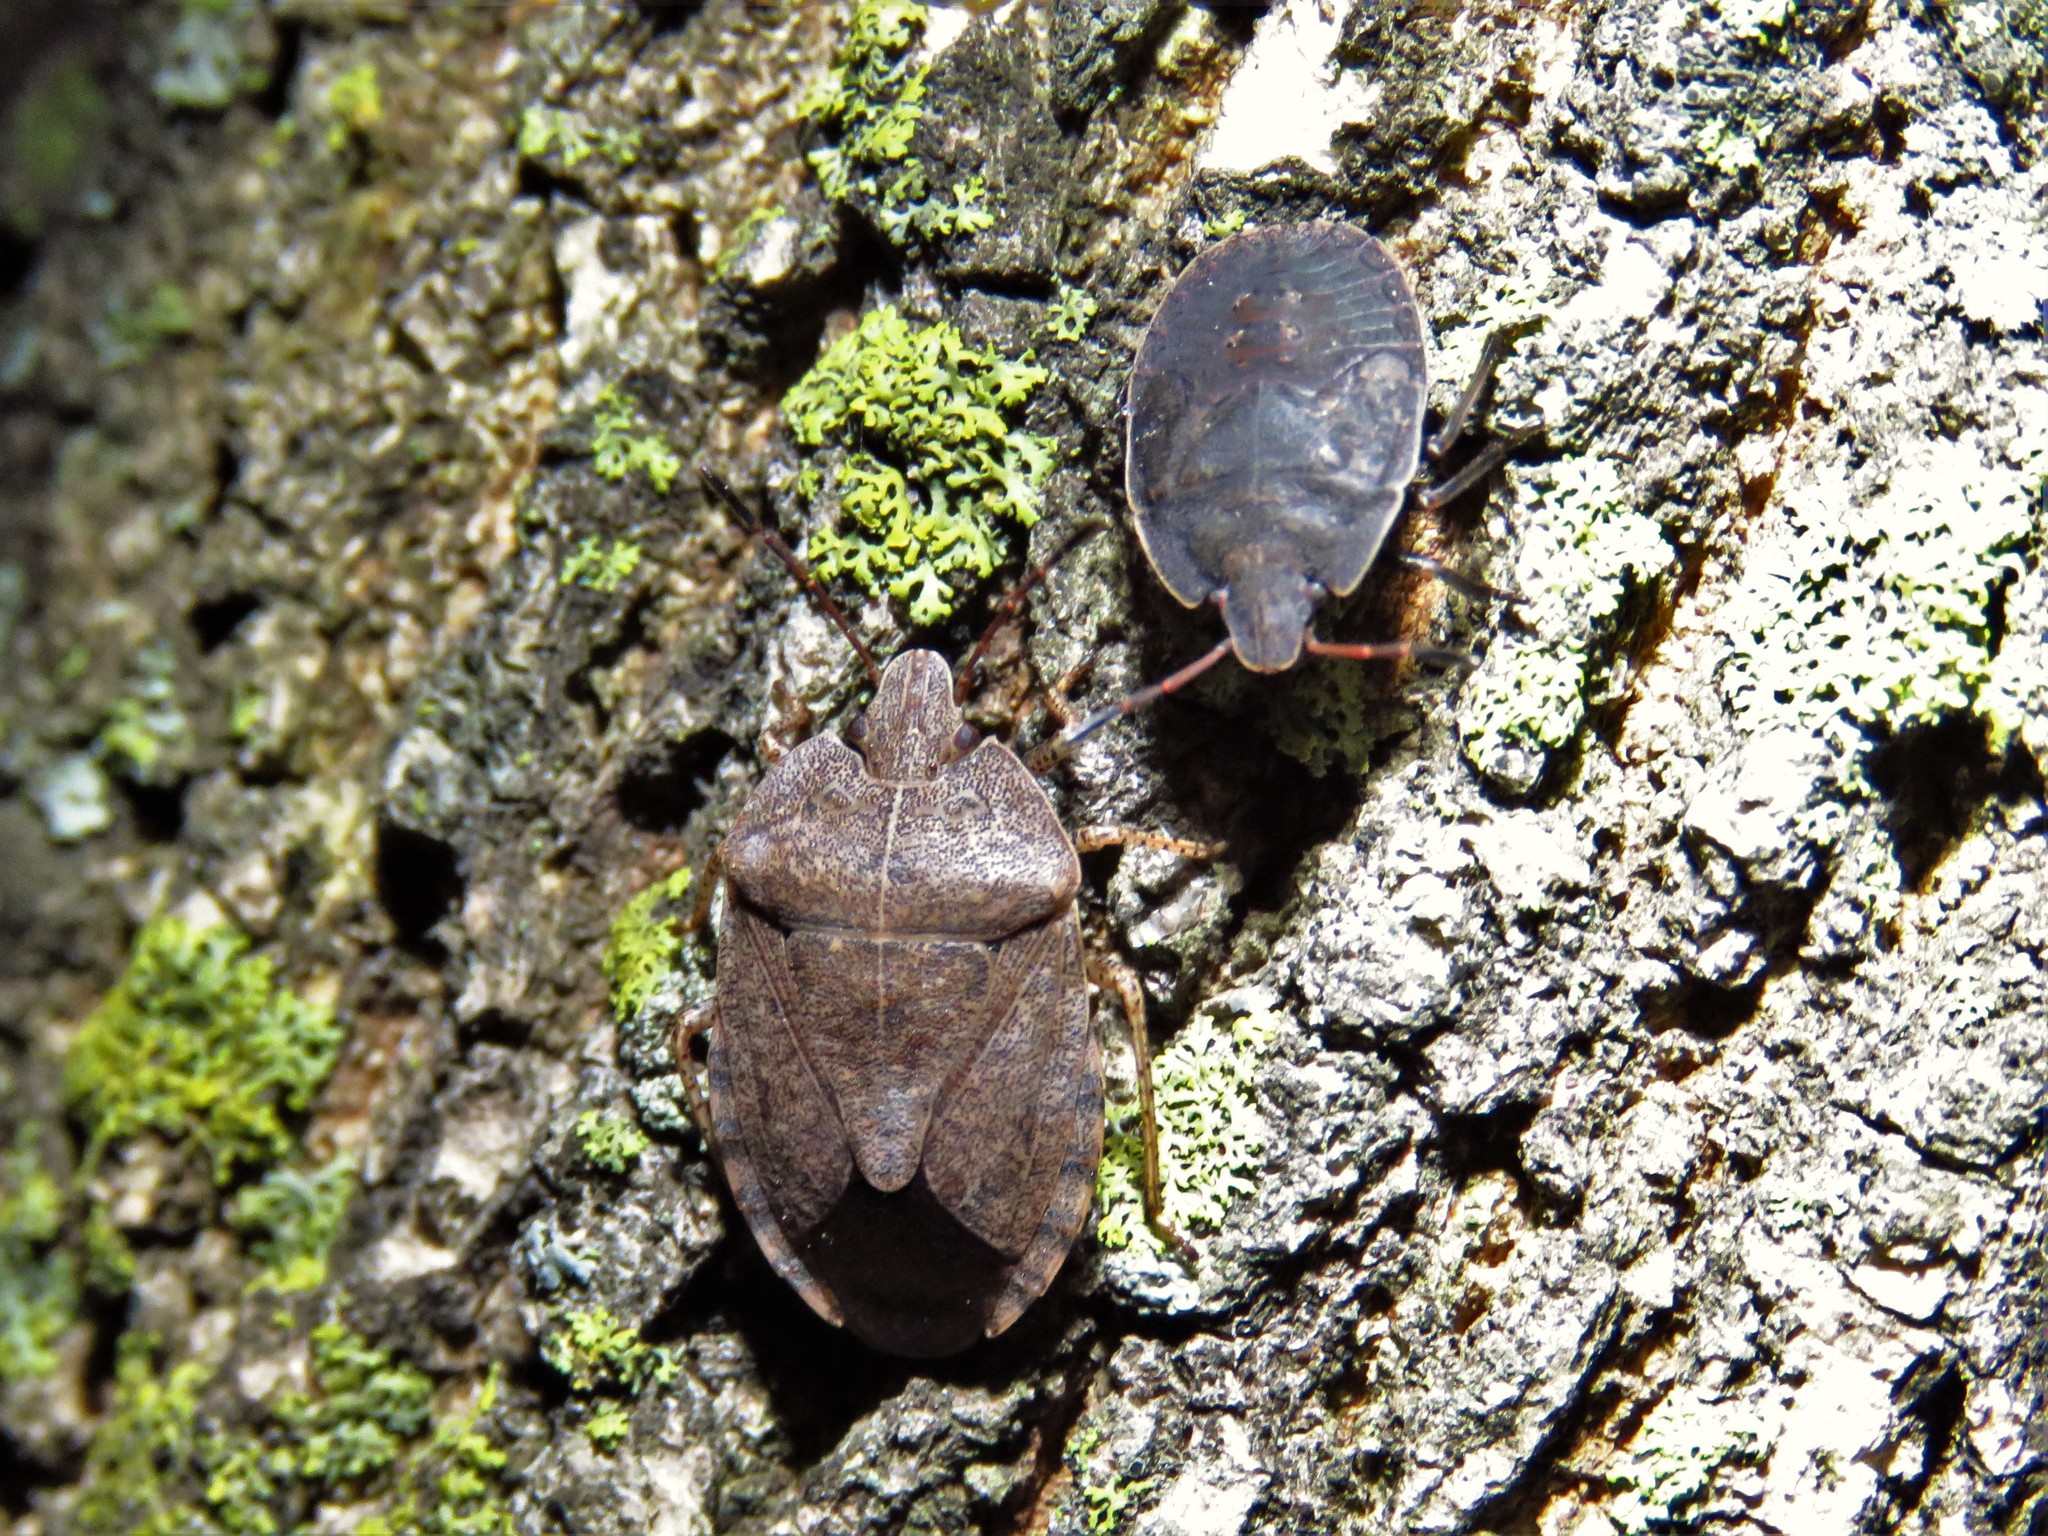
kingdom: Animalia
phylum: Arthropoda
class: Insecta
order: Hemiptera
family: Pentatomidae
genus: Menecles
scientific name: Menecles insertus
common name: Elf shoe stink bug
